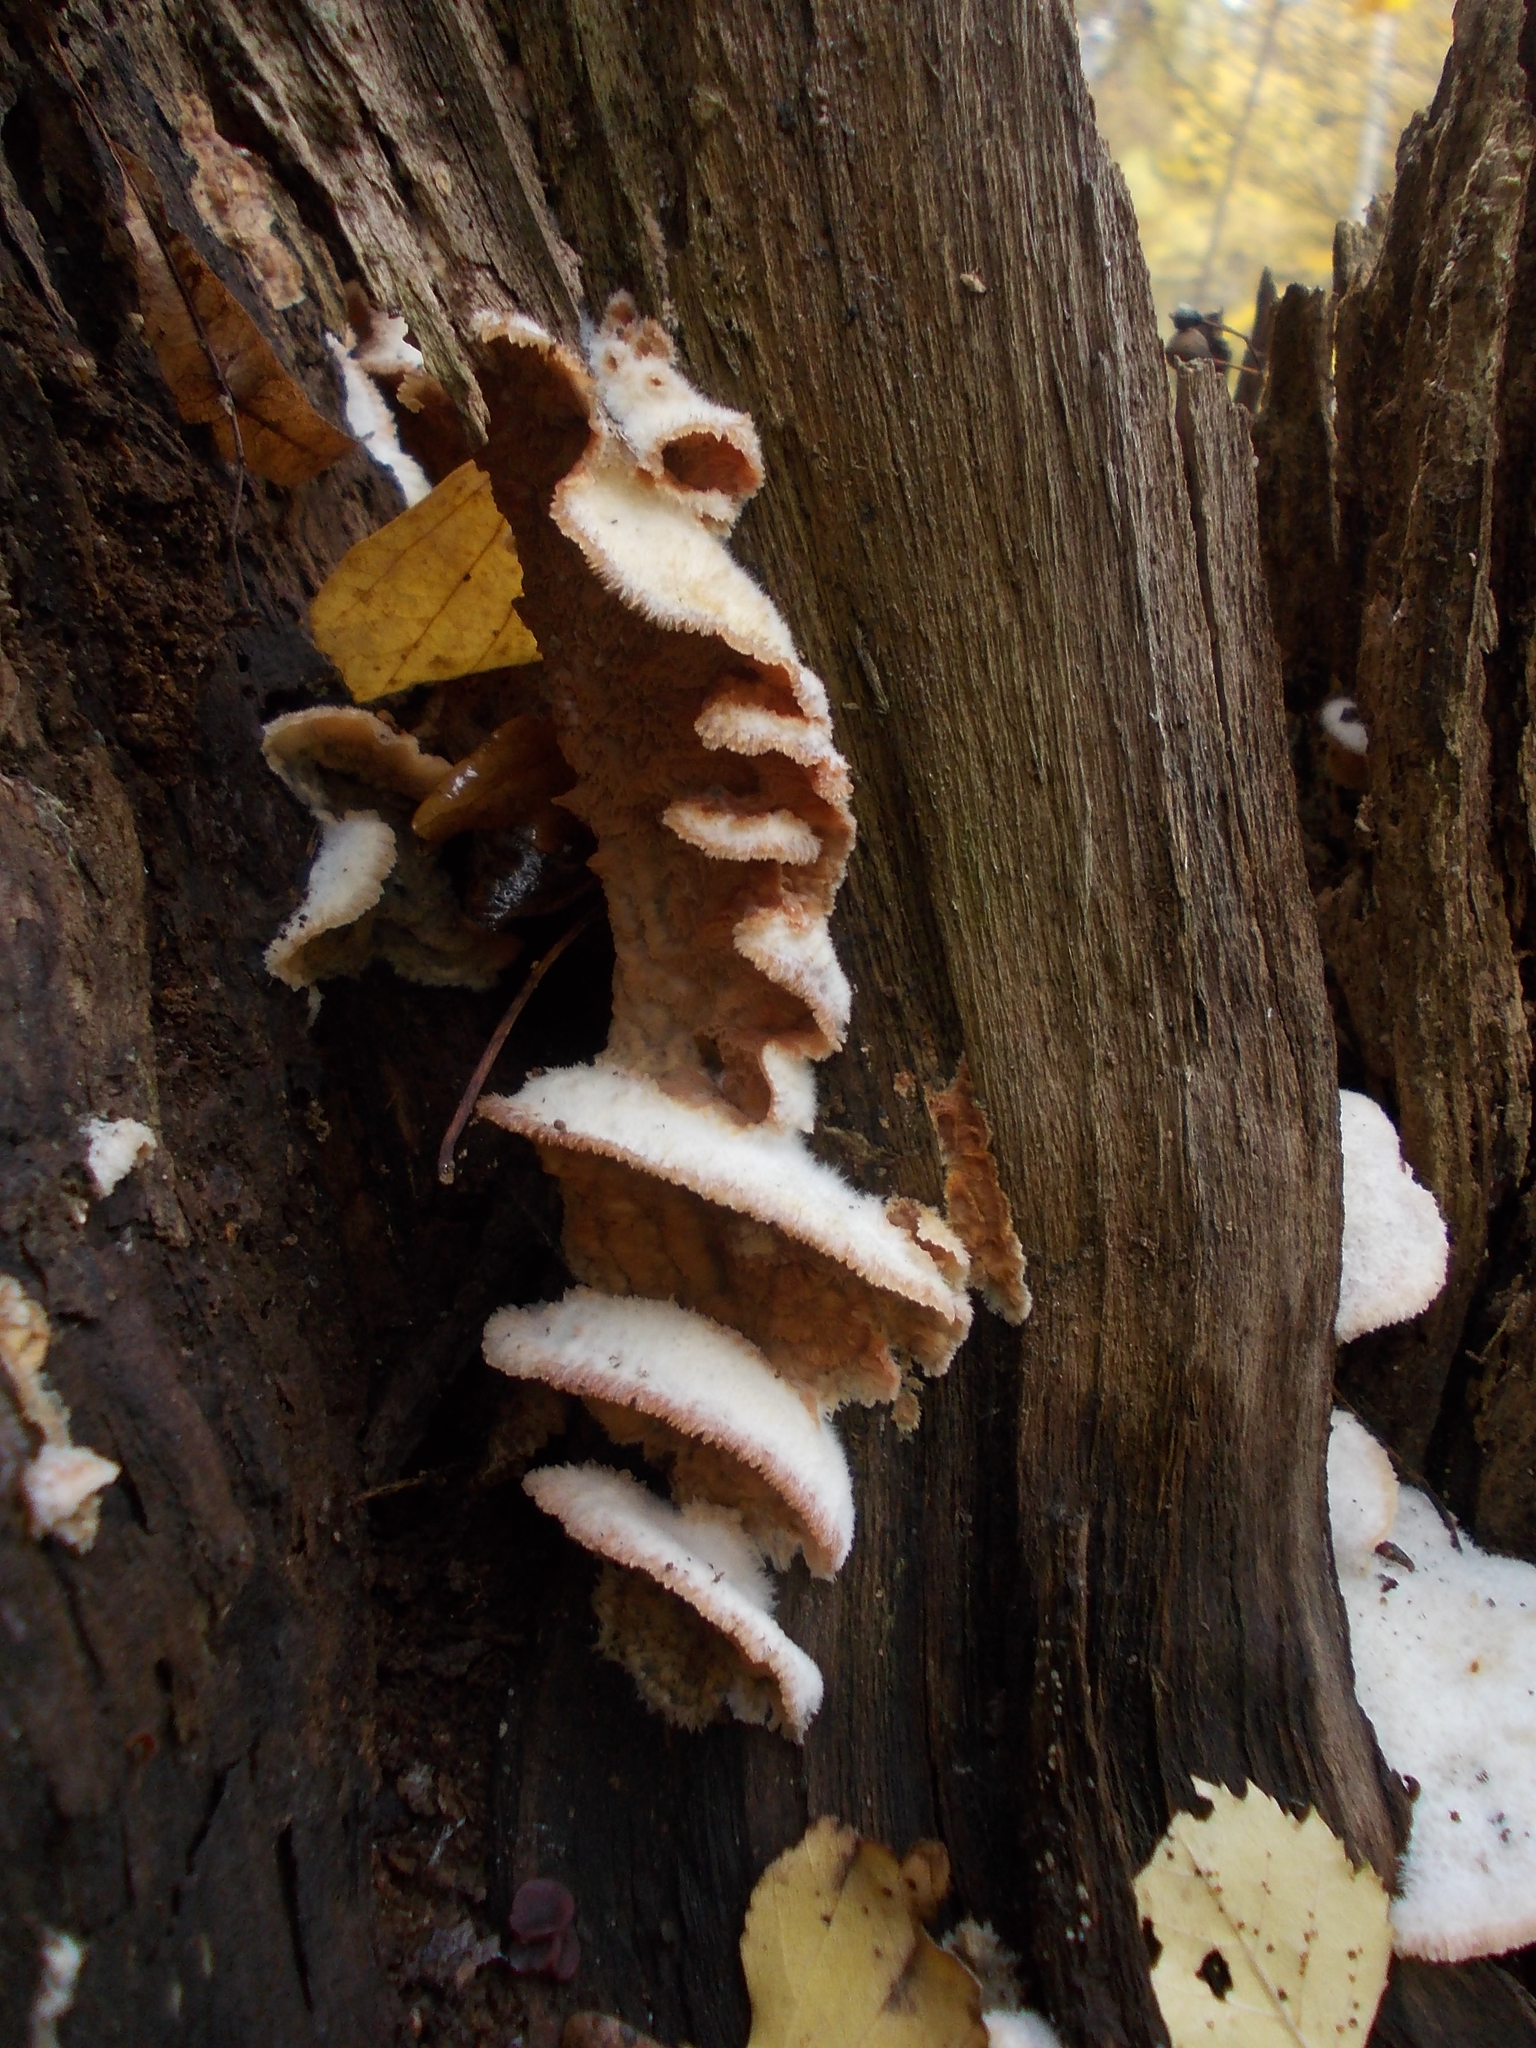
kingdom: Fungi
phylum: Basidiomycota
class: Agaricomycetes
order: Polyporales
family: Meruliaceae
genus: Phlebia
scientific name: Phlebia tremellosa
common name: Jelly rot
